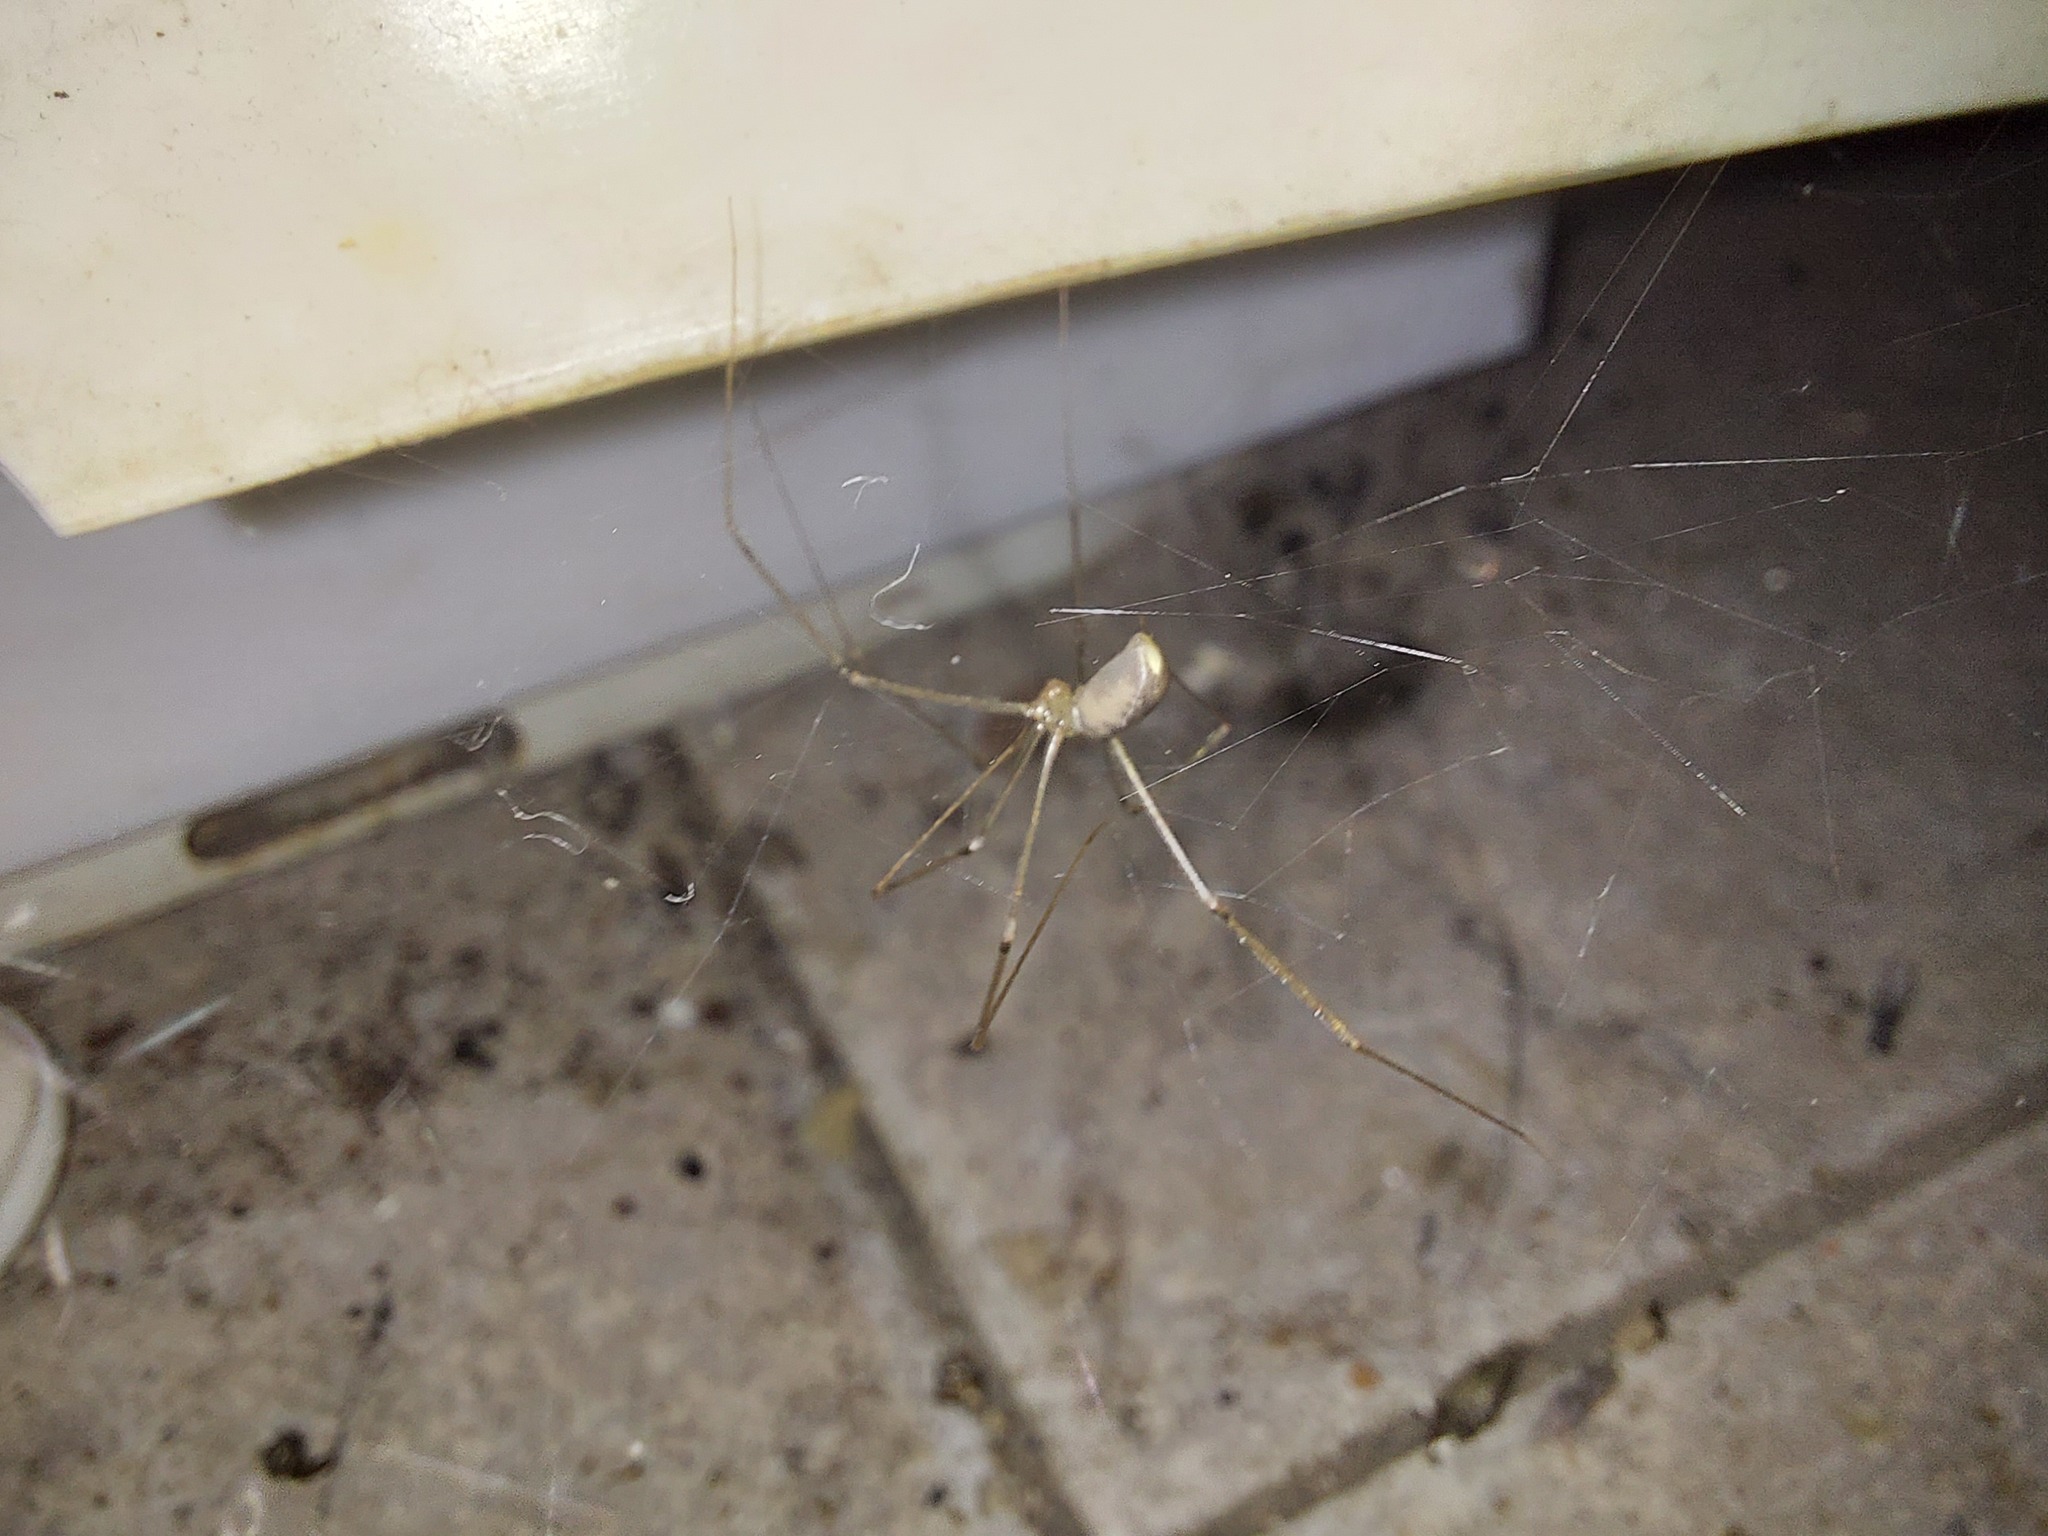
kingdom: Animalia
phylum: Arthropoda
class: Arachnida
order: Araneae
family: Pholcidae
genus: Pholcus
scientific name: Pholcus phalangioides
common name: Longbodied cellar spider
